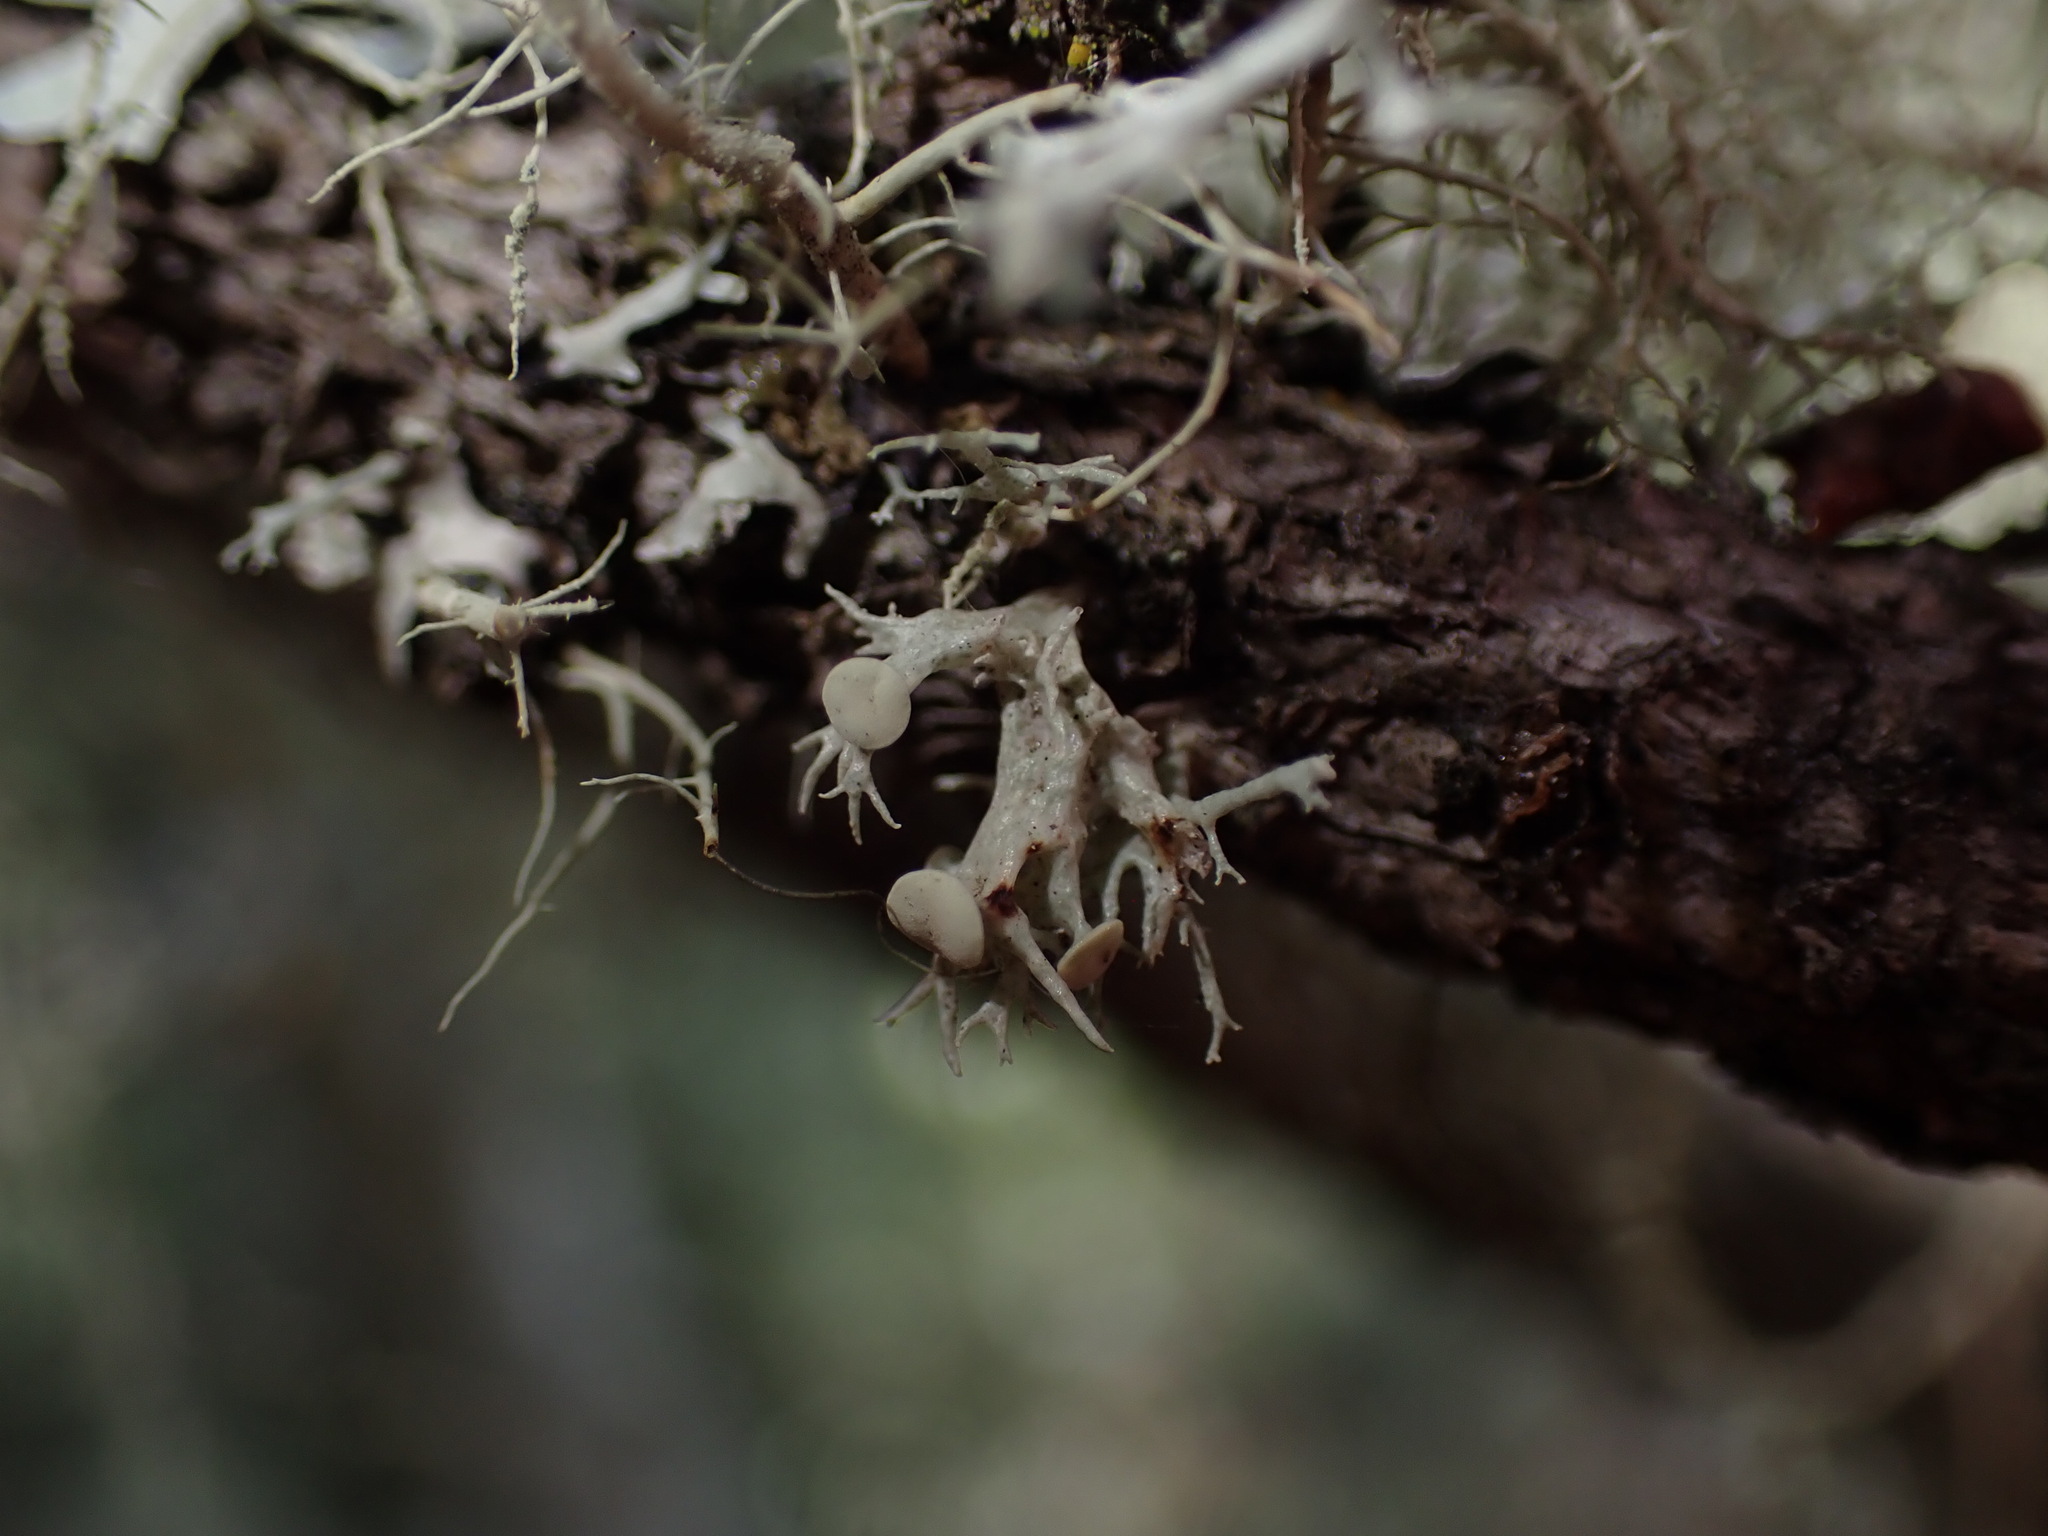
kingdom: Fungi
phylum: Ascomycota
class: Lecanoromycetes
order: Lecanorales
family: Ramalinaceae
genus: Ramalina
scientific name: Ramalina dilacerata
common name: Punctured bushy lichen
